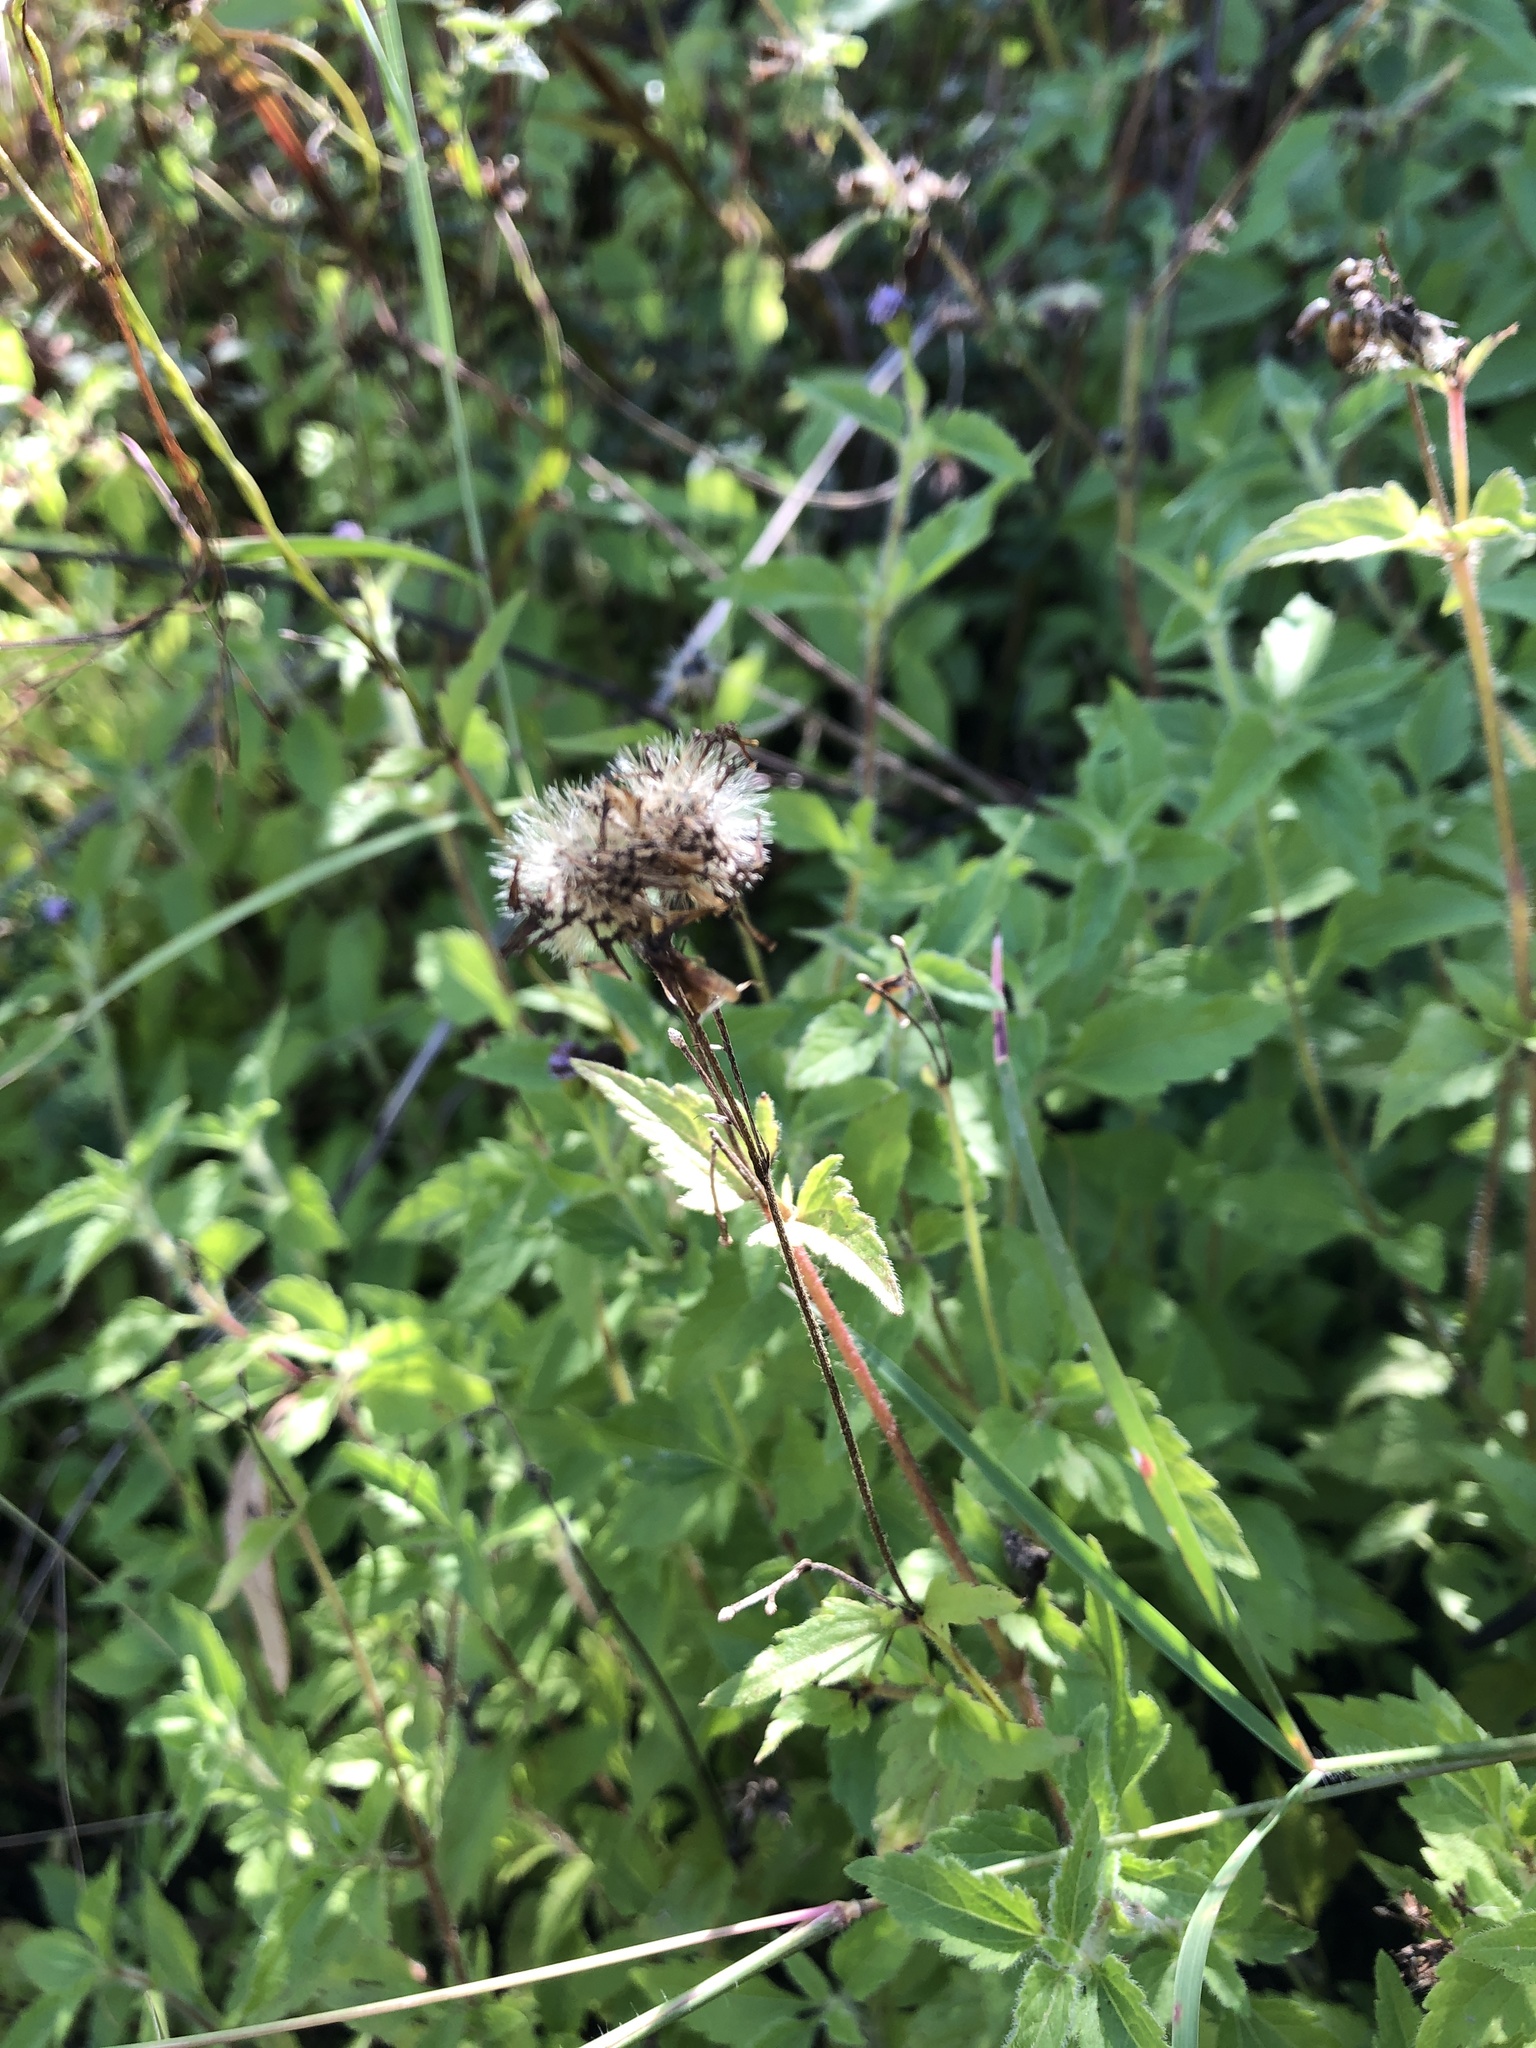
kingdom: Plantae
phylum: Tracheophyta
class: Magnoliopsida
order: Asterales
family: Asteraceae
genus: Praxelis
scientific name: Praxelis clematidea
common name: Praxelis
